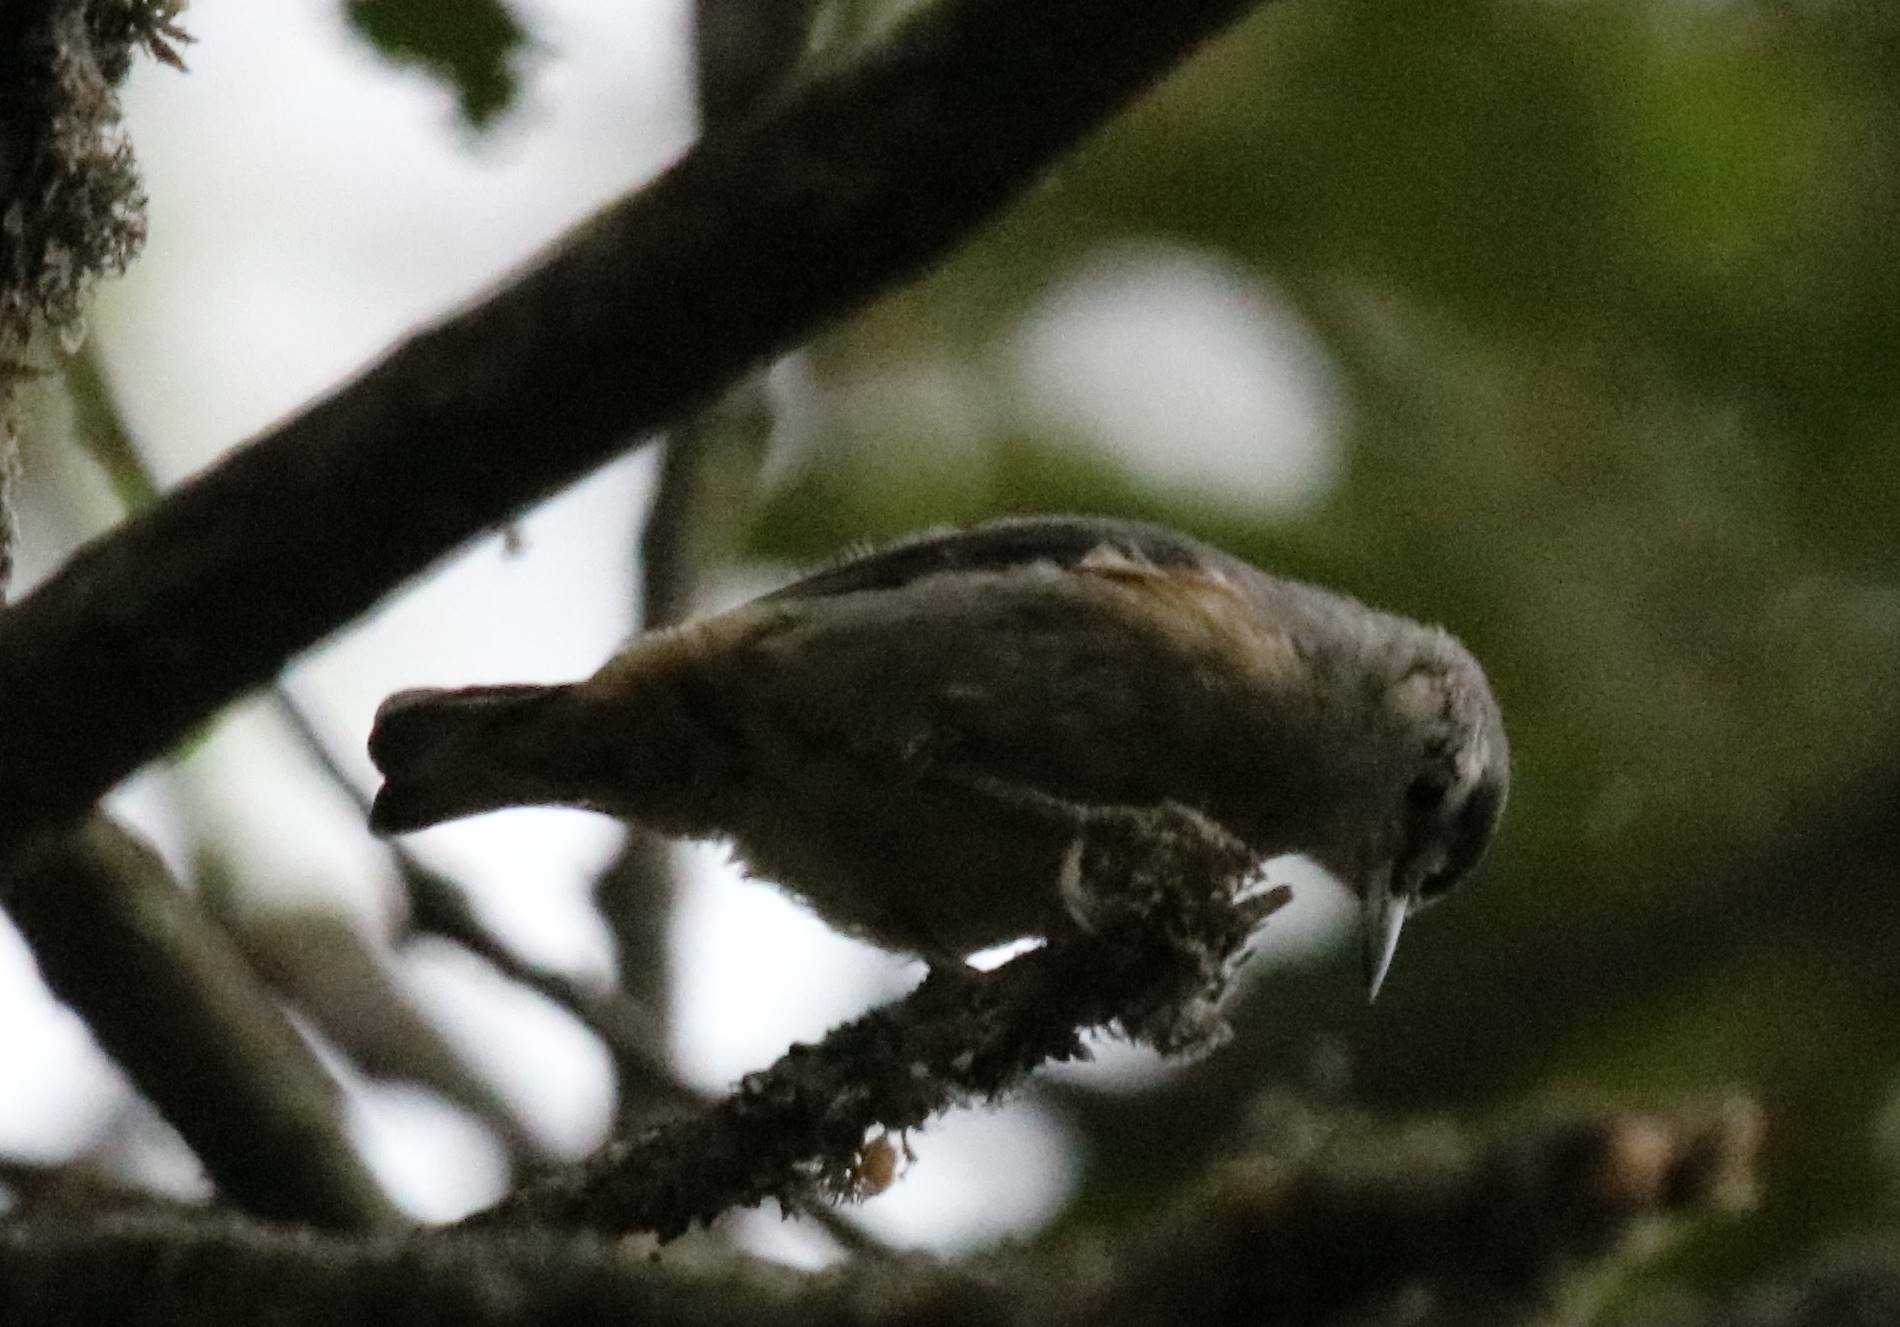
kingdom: Animalia
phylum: Chordata
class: Aves
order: Passeriformes
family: Sittidae
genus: Sitta
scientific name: Sitta ledanti
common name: Algerian nuthatch
